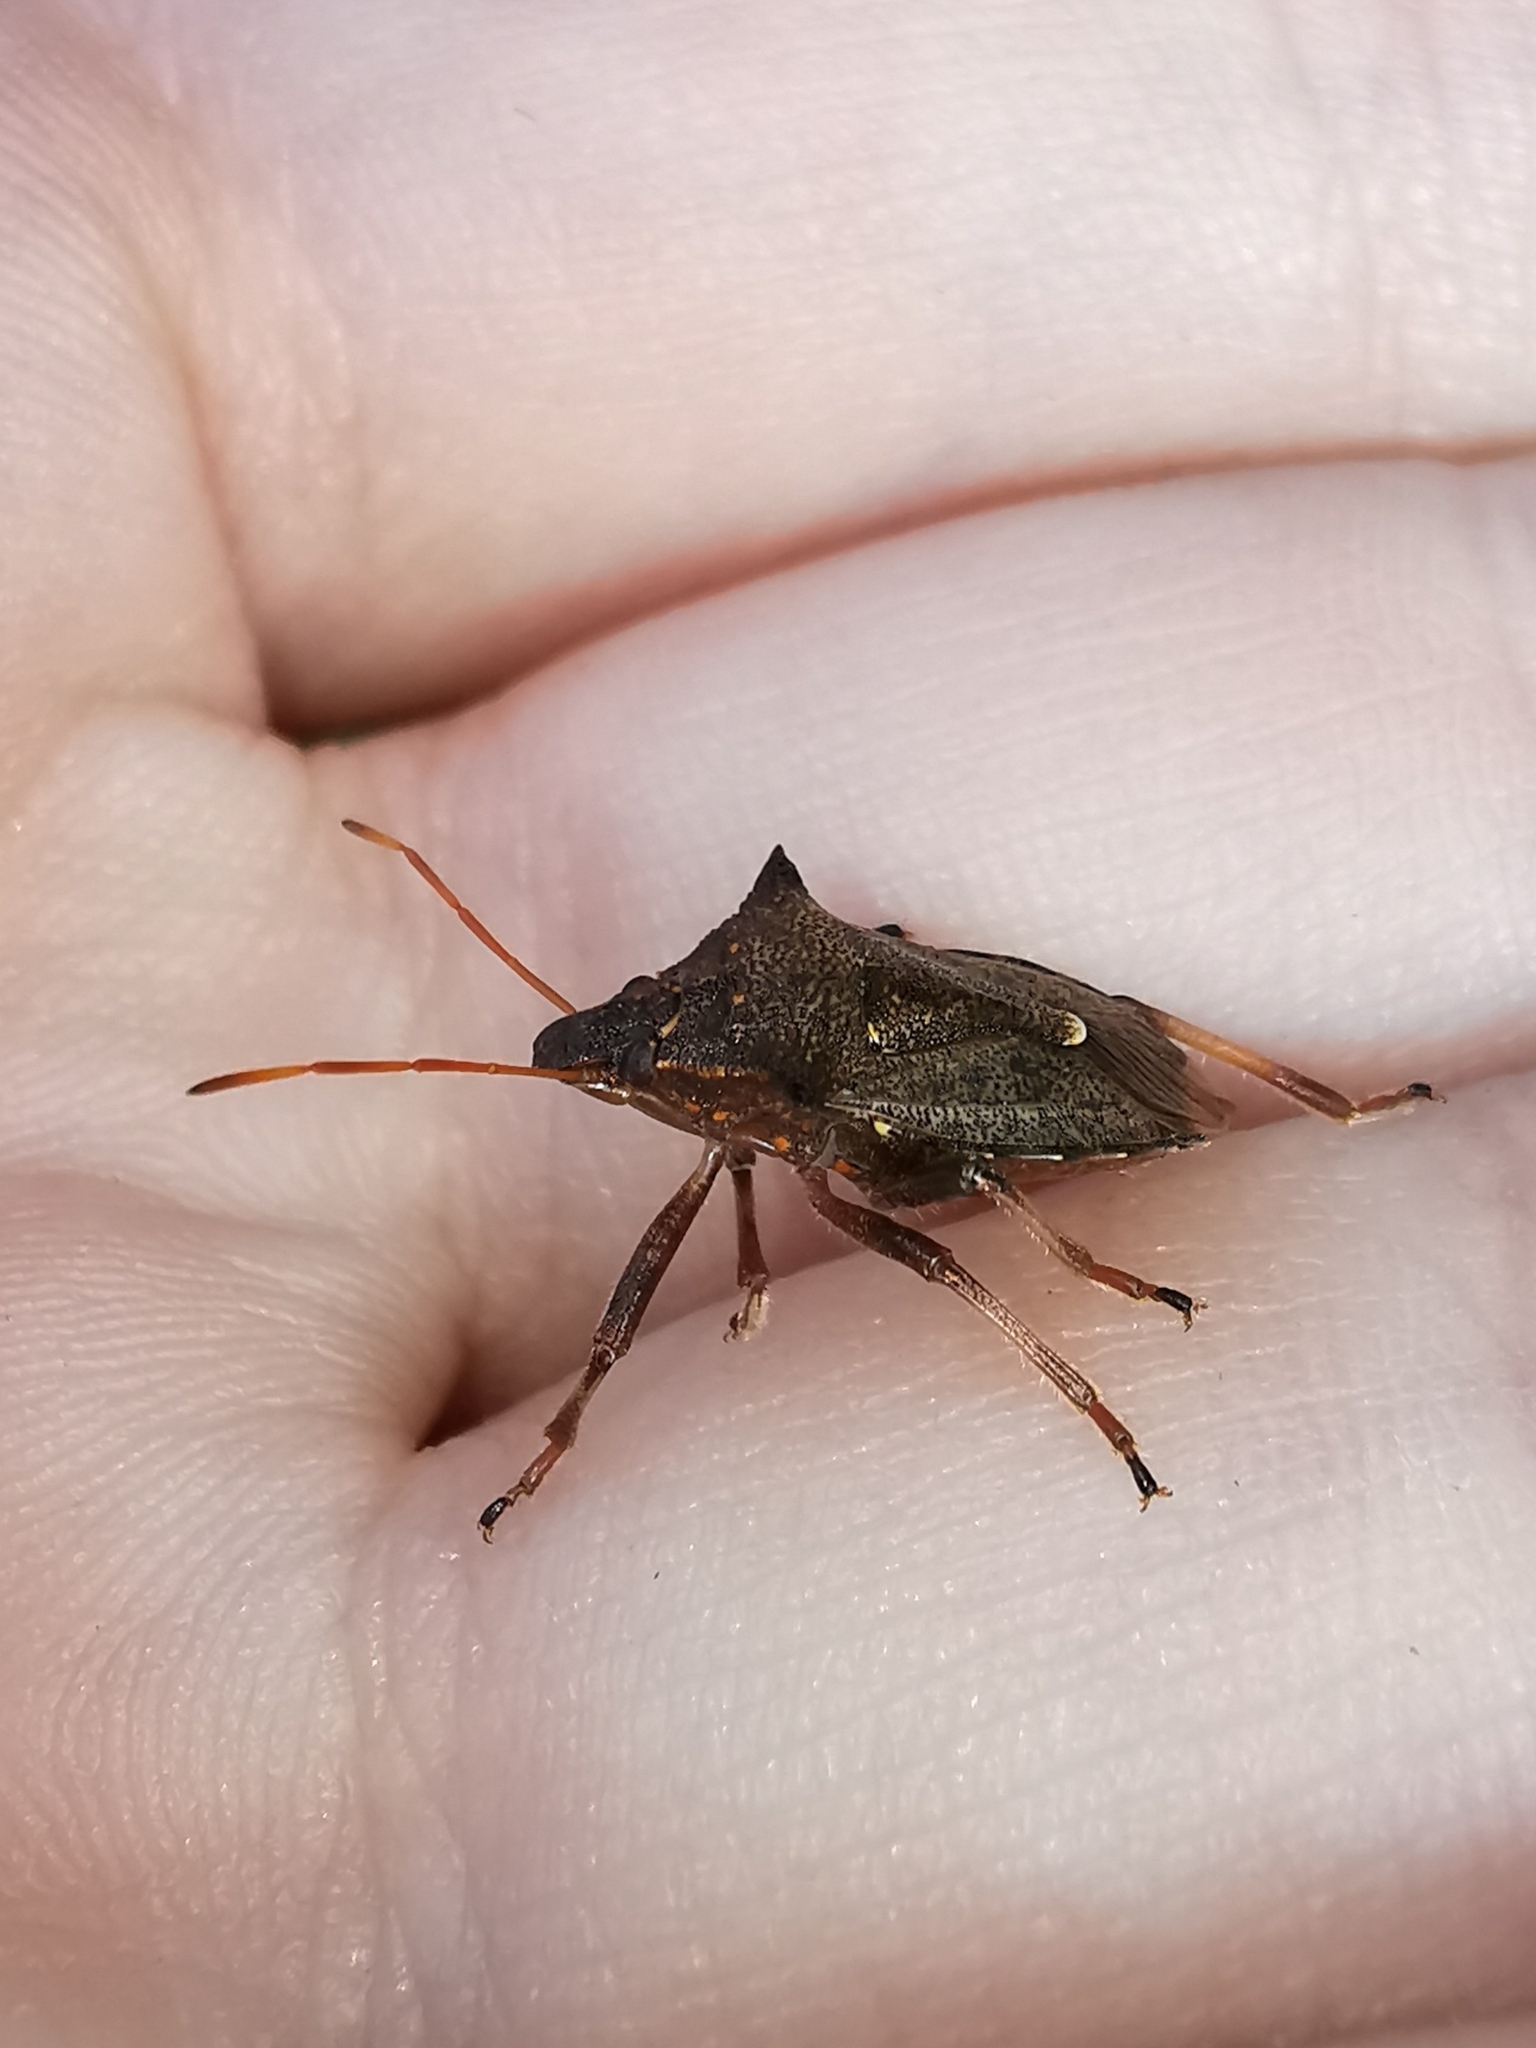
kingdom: Animalia
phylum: Arthropoda
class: Insecta
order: Hemiptera
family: Pentatomidae
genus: Picromerus
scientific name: Picromerus bidens
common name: Spiked shieldbug
